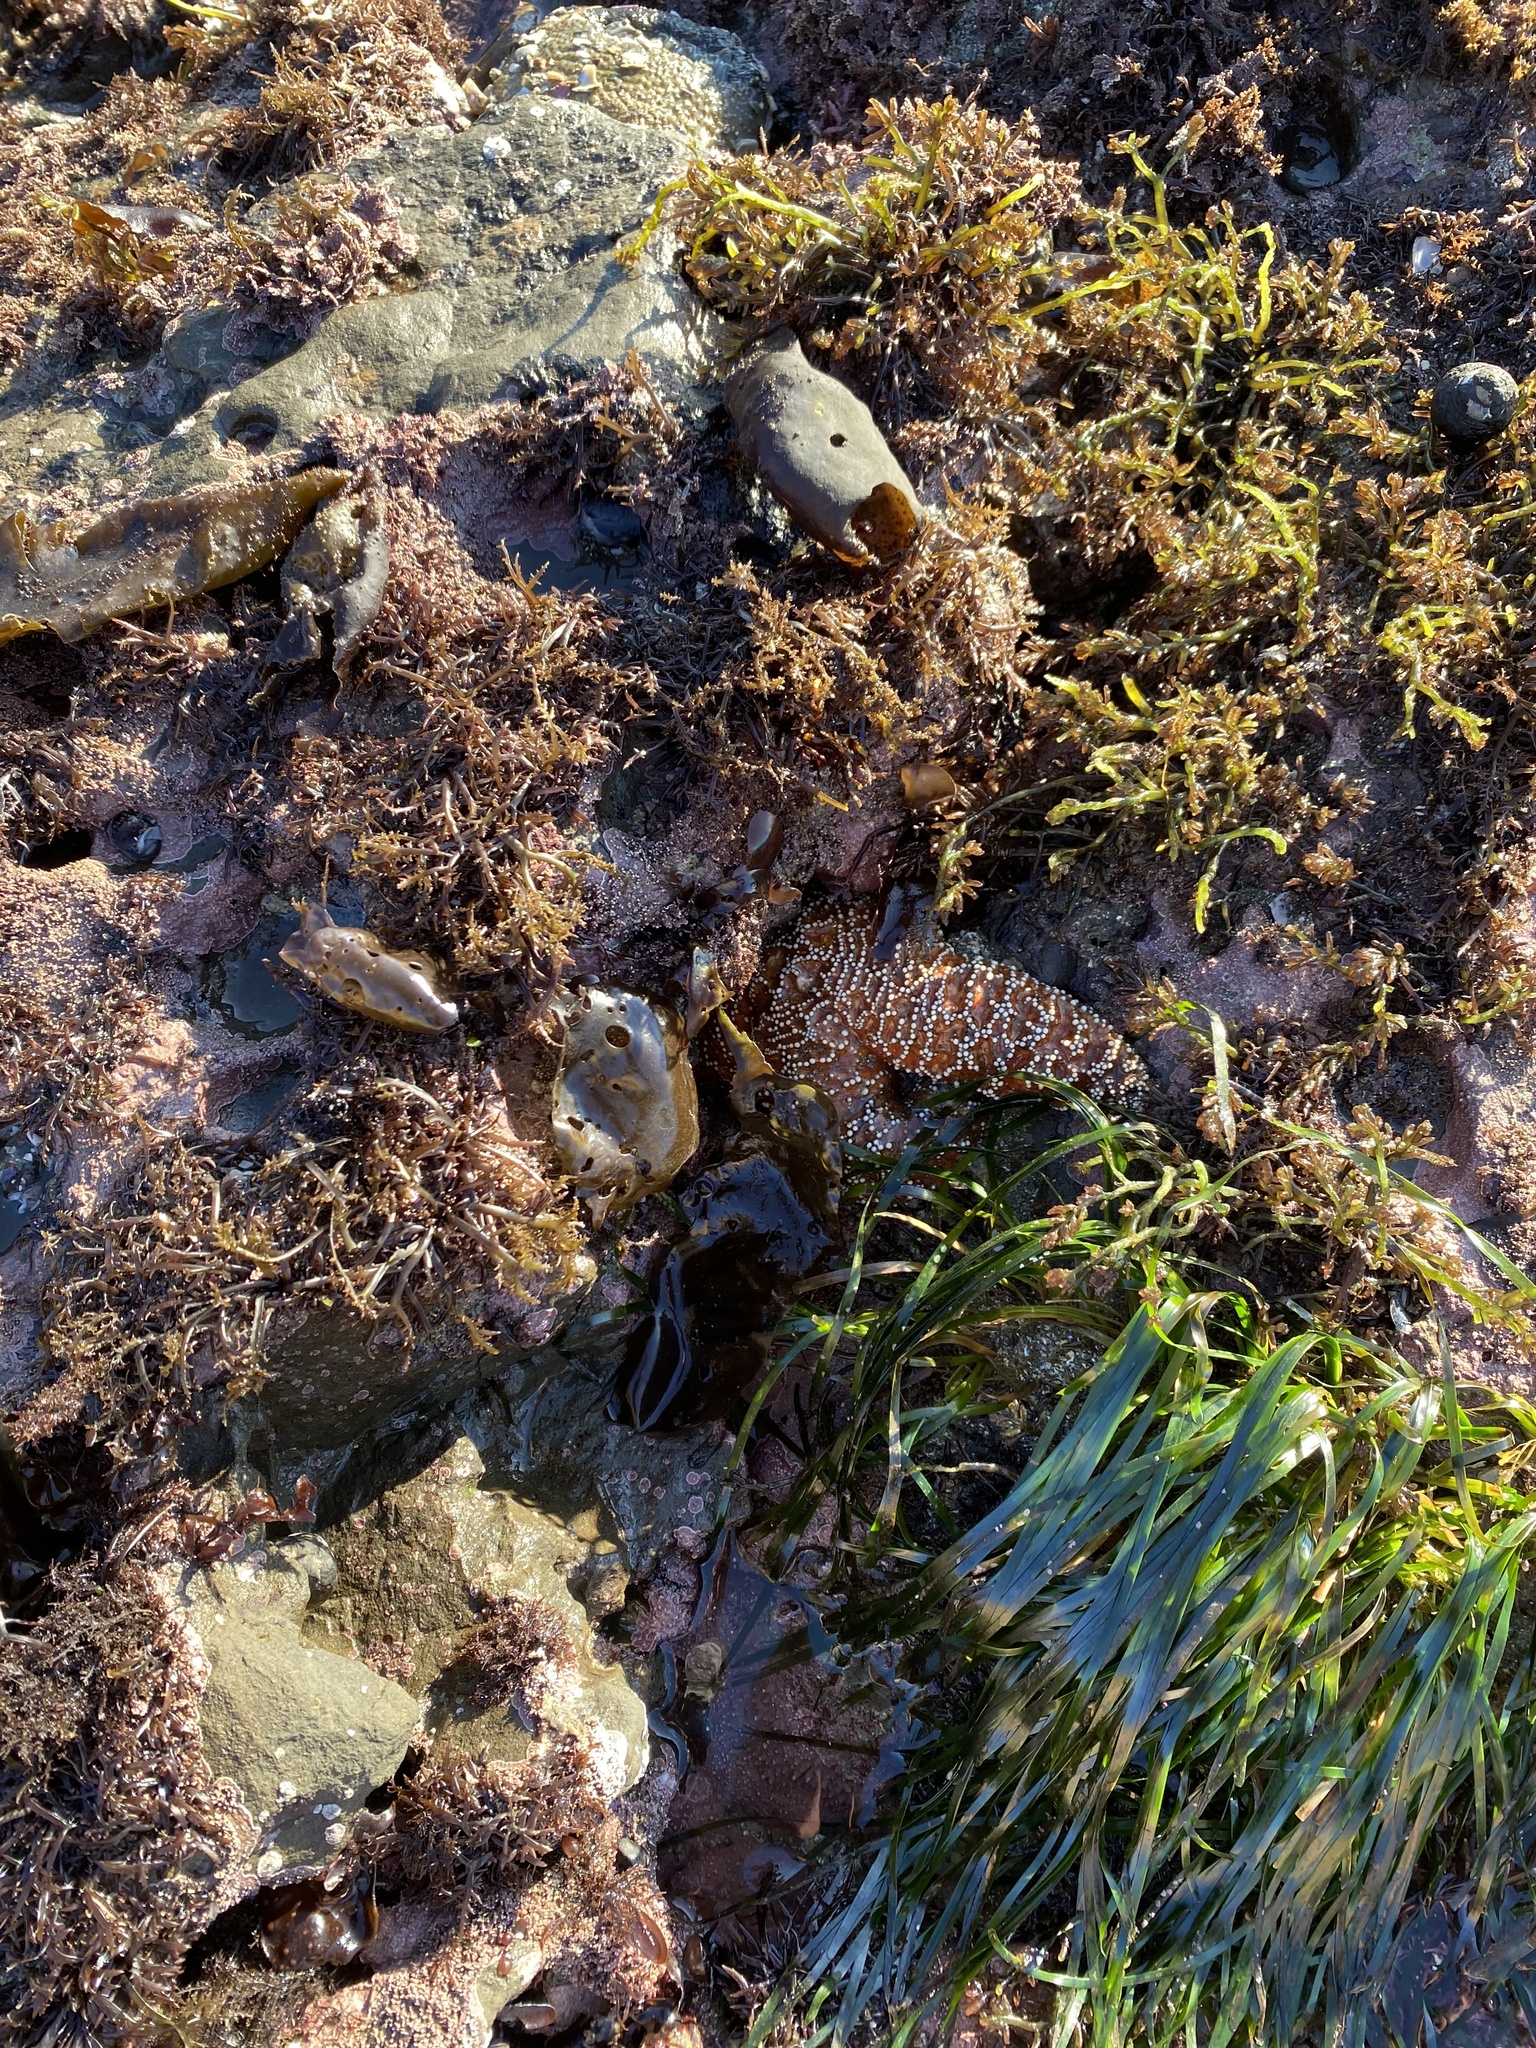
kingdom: Animalia
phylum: Echinodermata
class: Asteroidea
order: Forcipulatida
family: Asteriidae
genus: Pisaster
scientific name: Pisaster ochraceus
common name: Ochre stars
